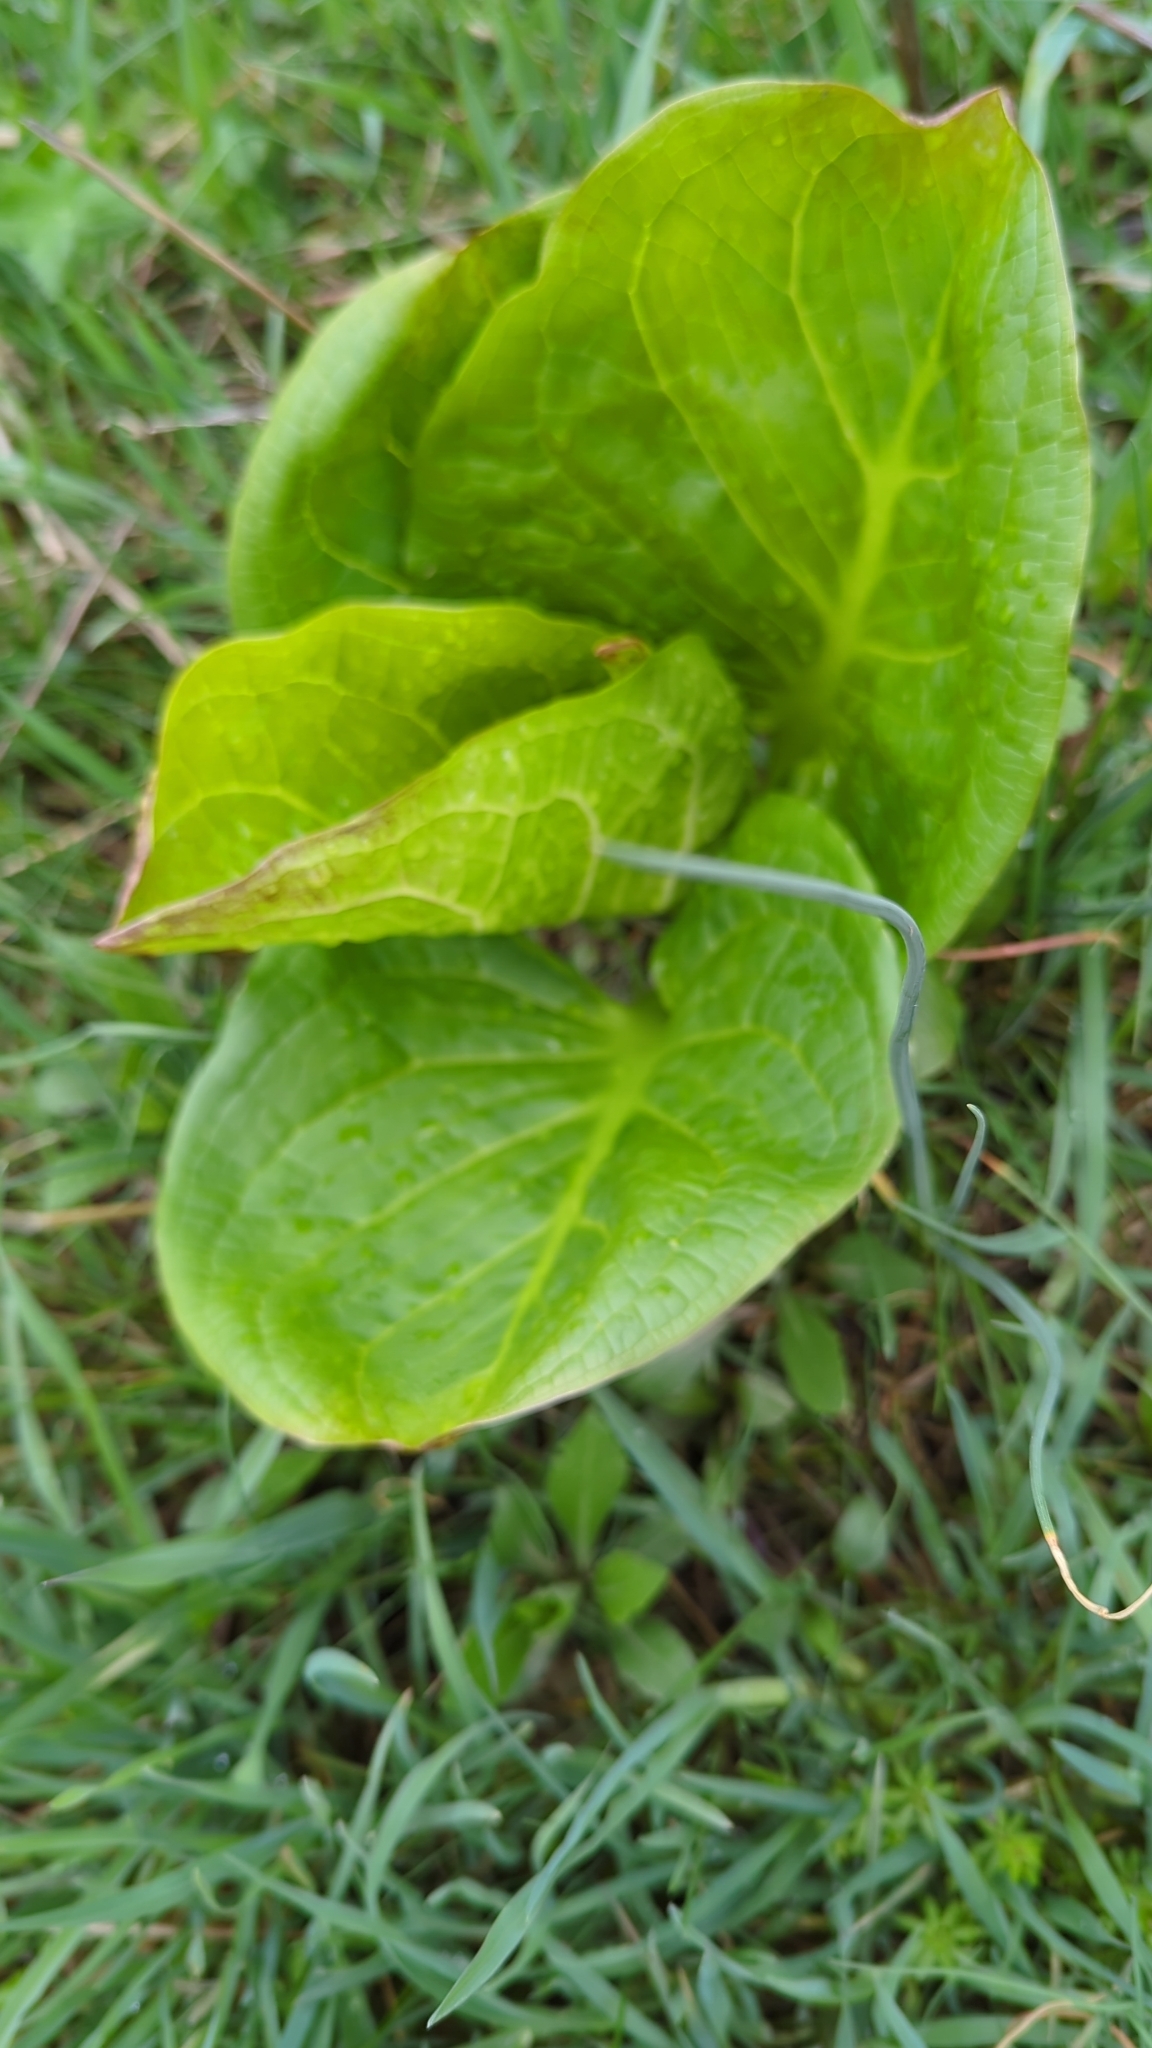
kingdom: Plantae
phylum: Tracheophyta
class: Liliopsida
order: Alismatales
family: Araceae
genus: Symplocarpus
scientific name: Symplocarpus foetidus
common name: Eastern skunk cabbage
